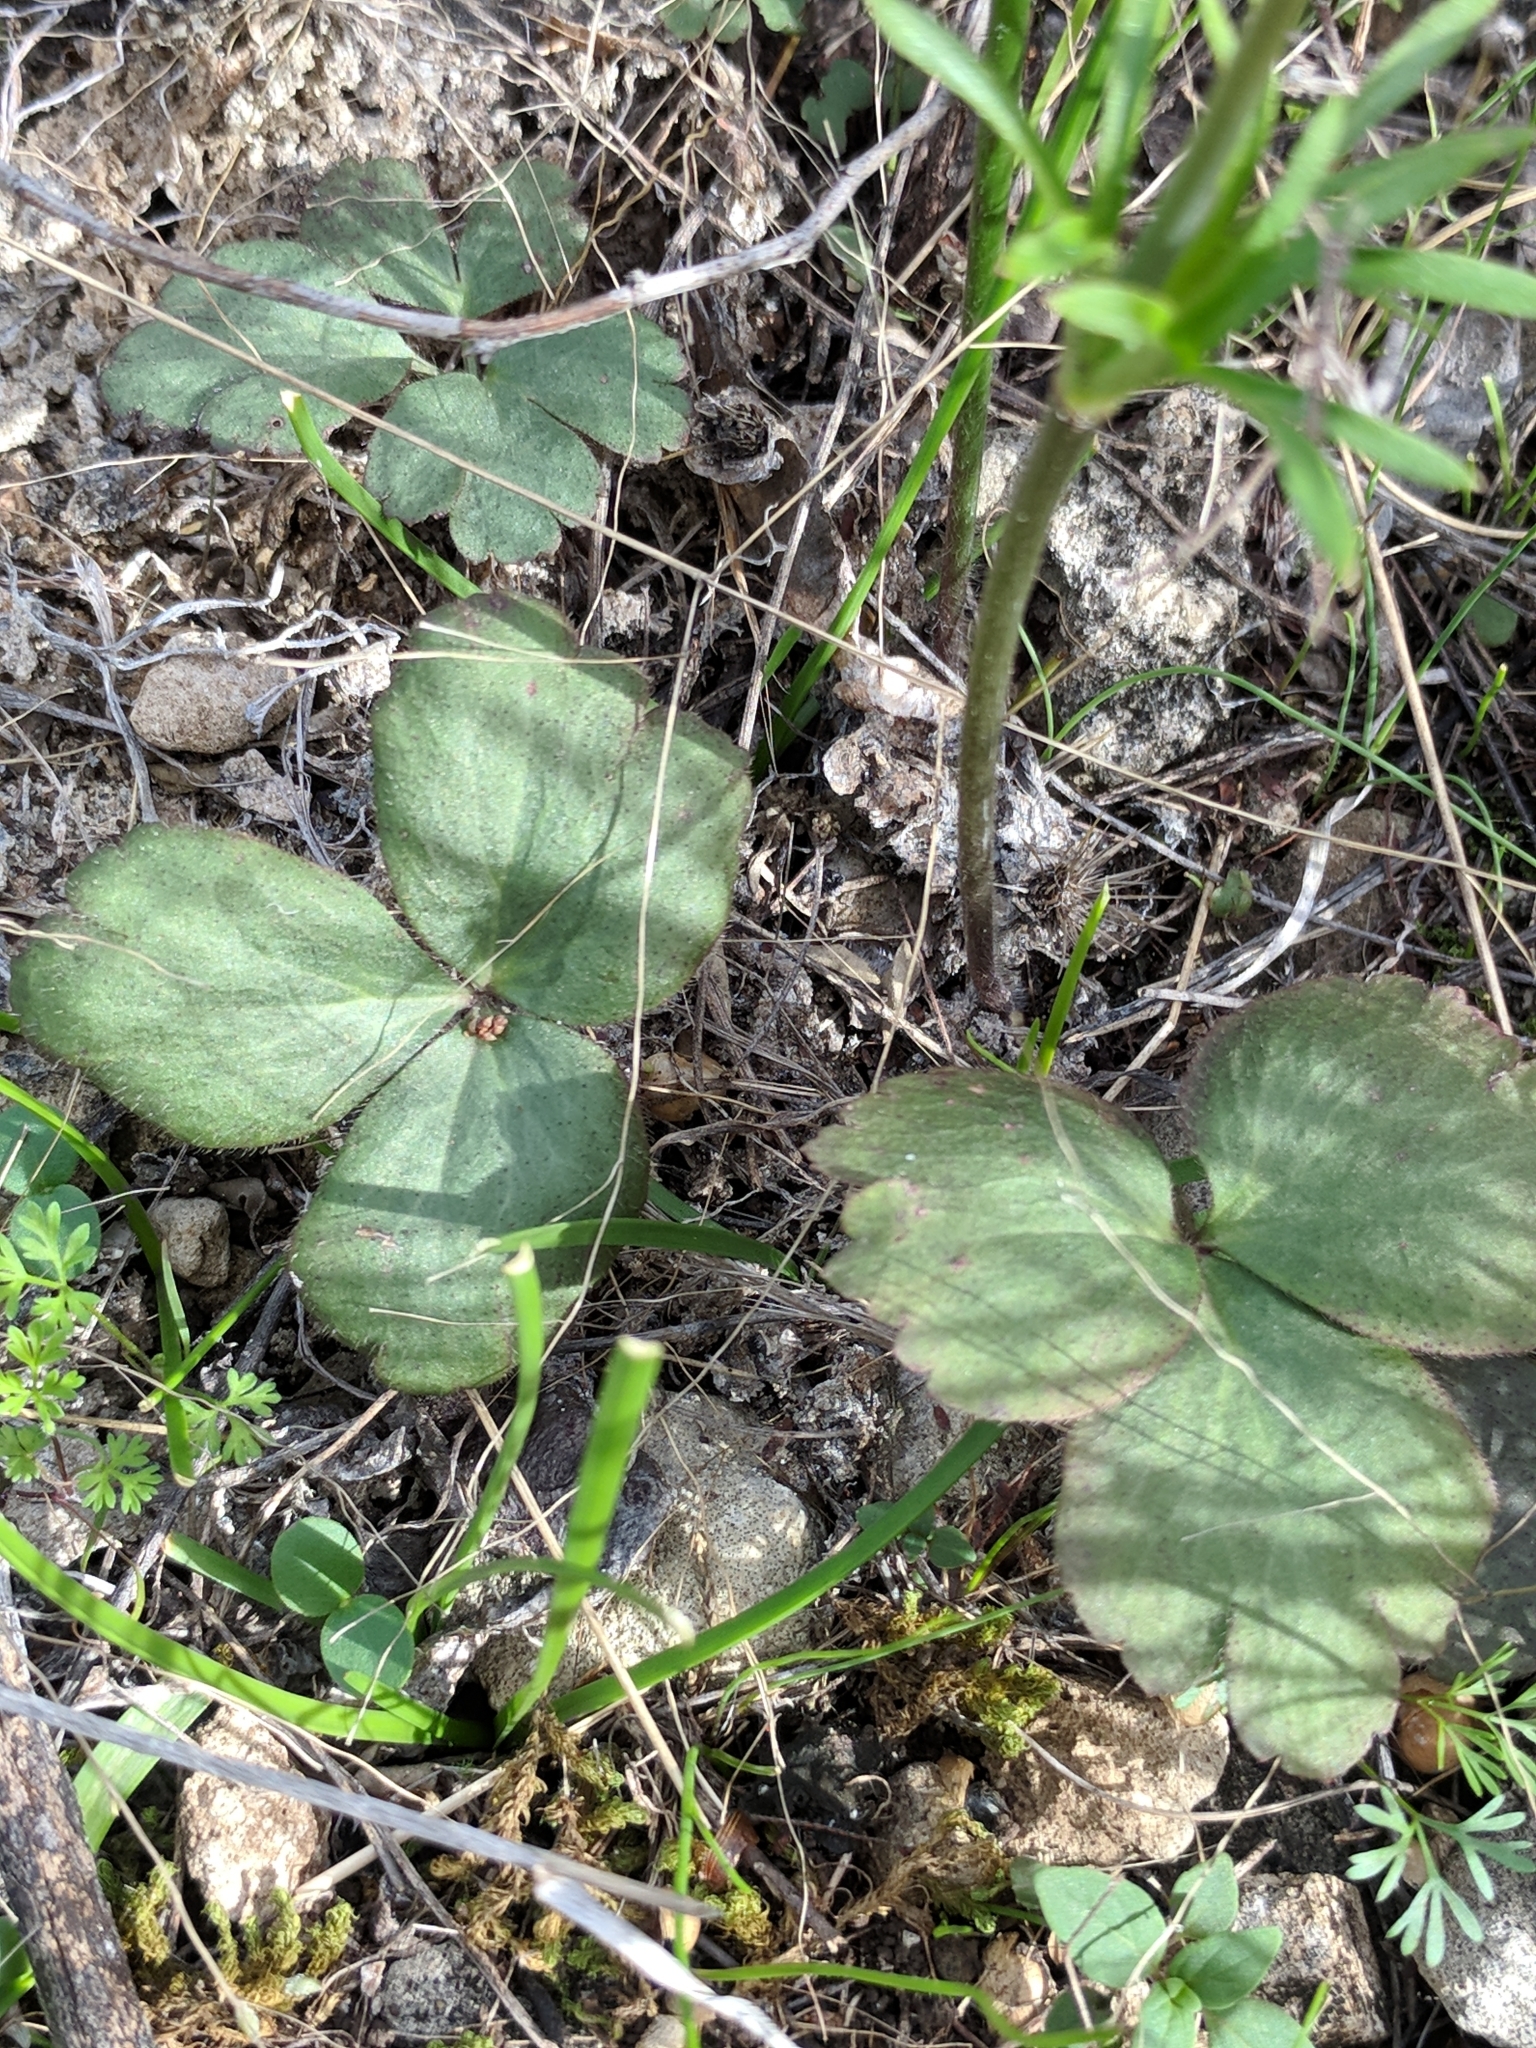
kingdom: Plantae
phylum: Tracheophyta
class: Magnoliopsida
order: Ranunculales
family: Ranunculaceae
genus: Anemone
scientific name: Anemone berlandieri
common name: Ten-petal anemone
